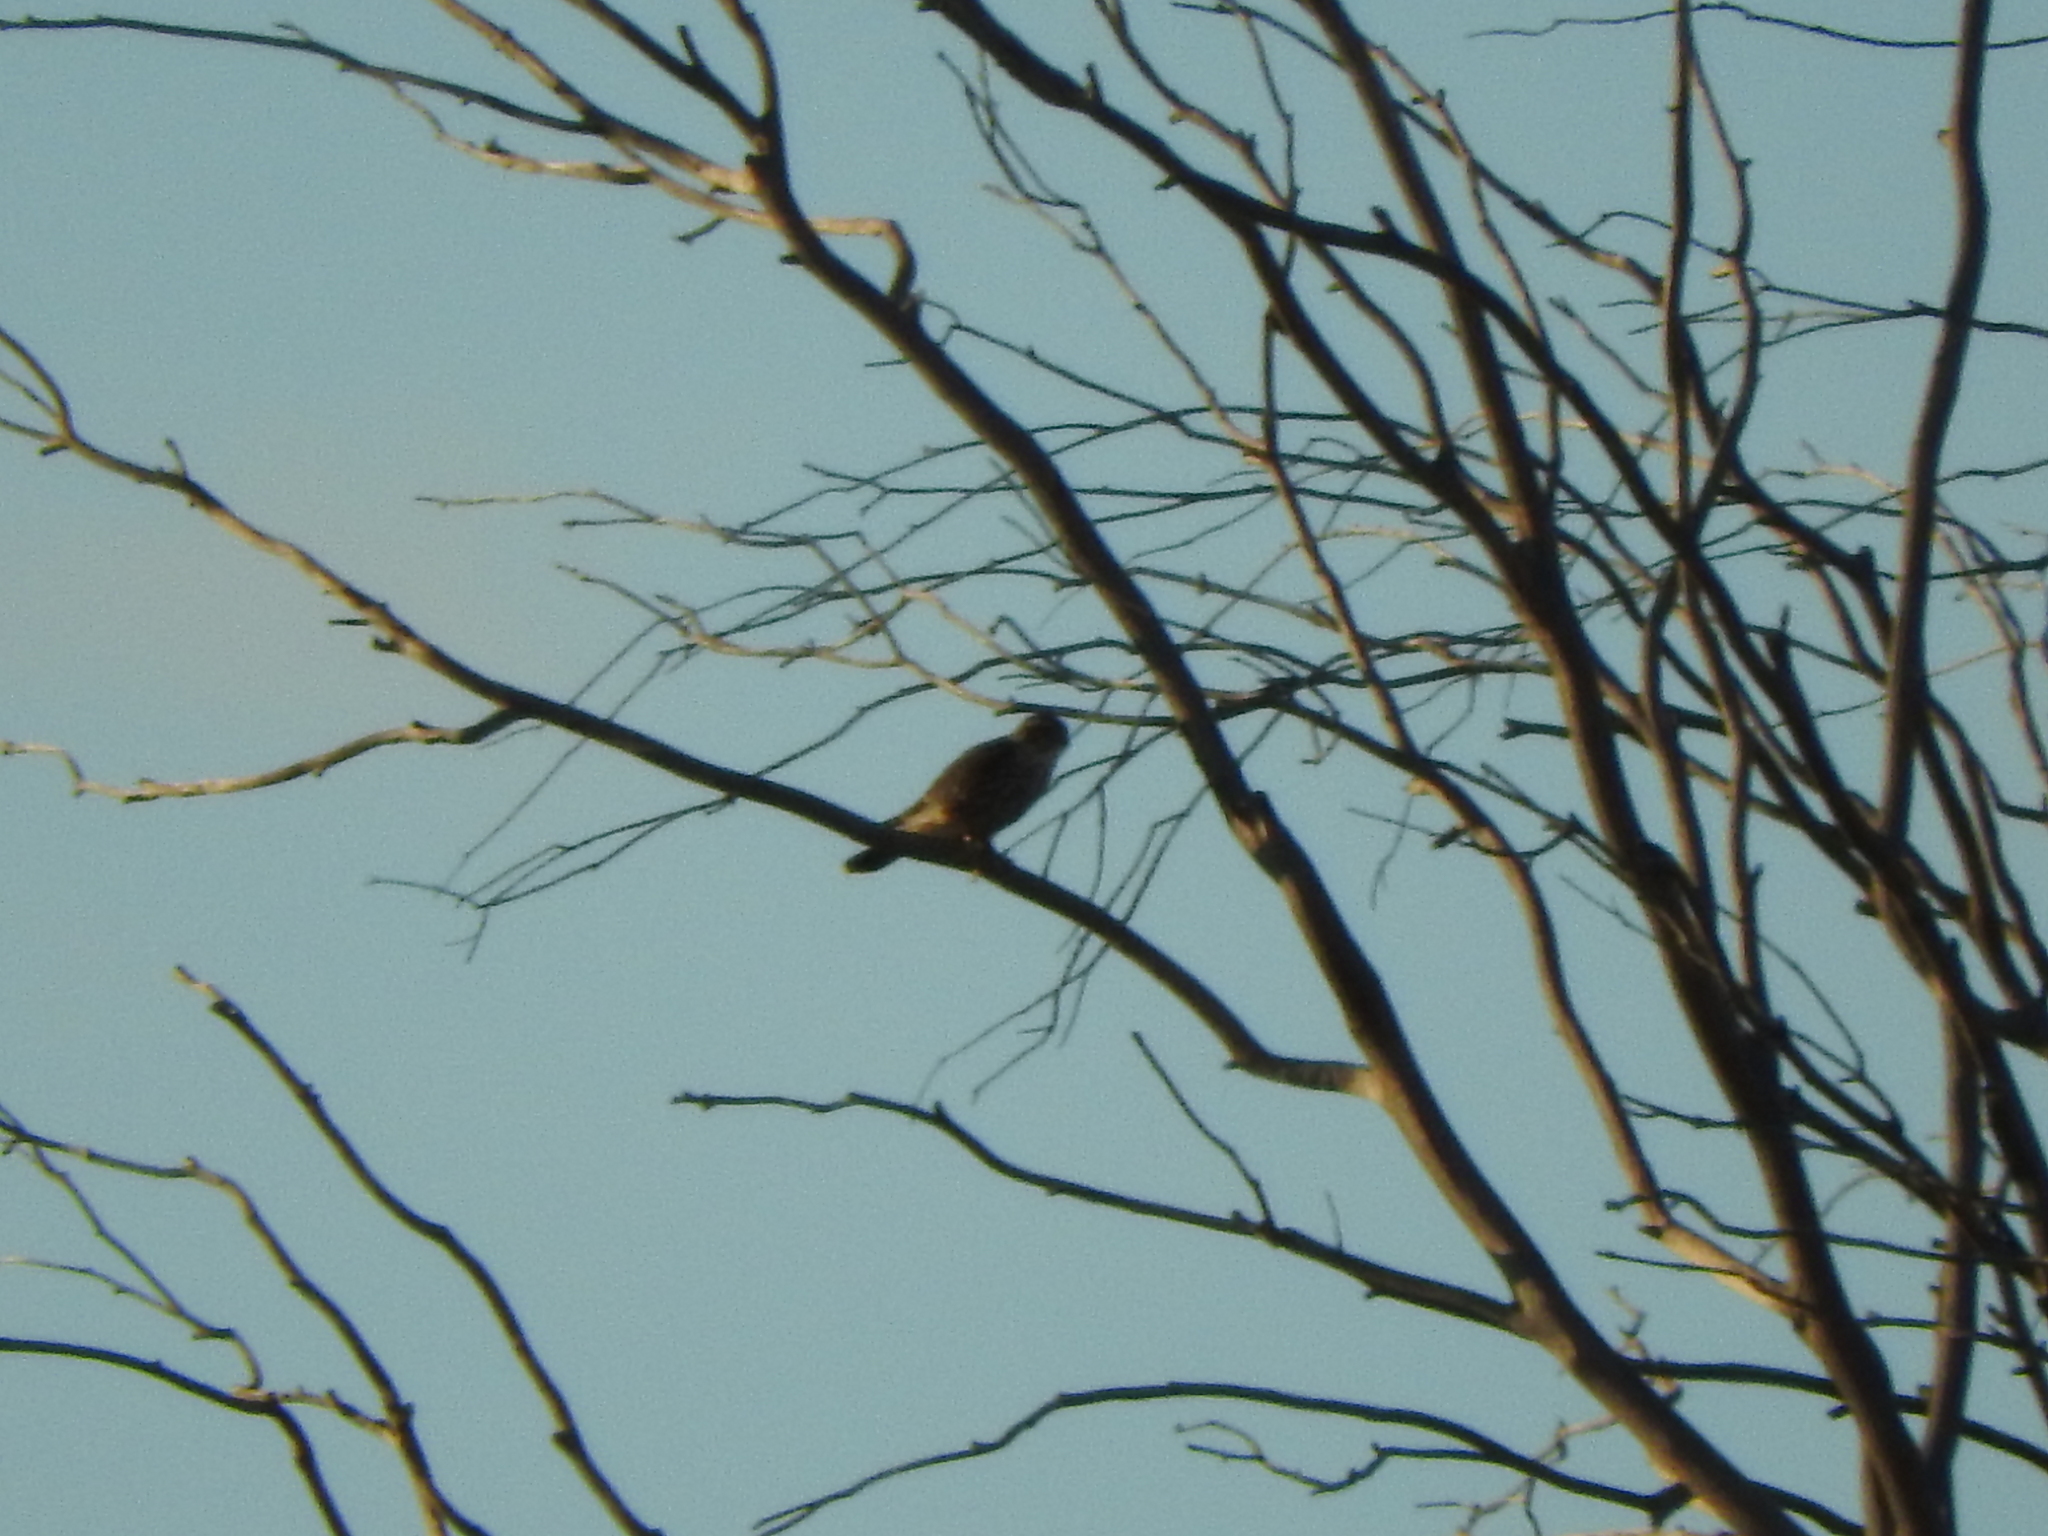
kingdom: Animalia
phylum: Chordata
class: Aves
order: Falconiformes
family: Falconidae
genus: Falco
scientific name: Falco columbarius
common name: Merlin
